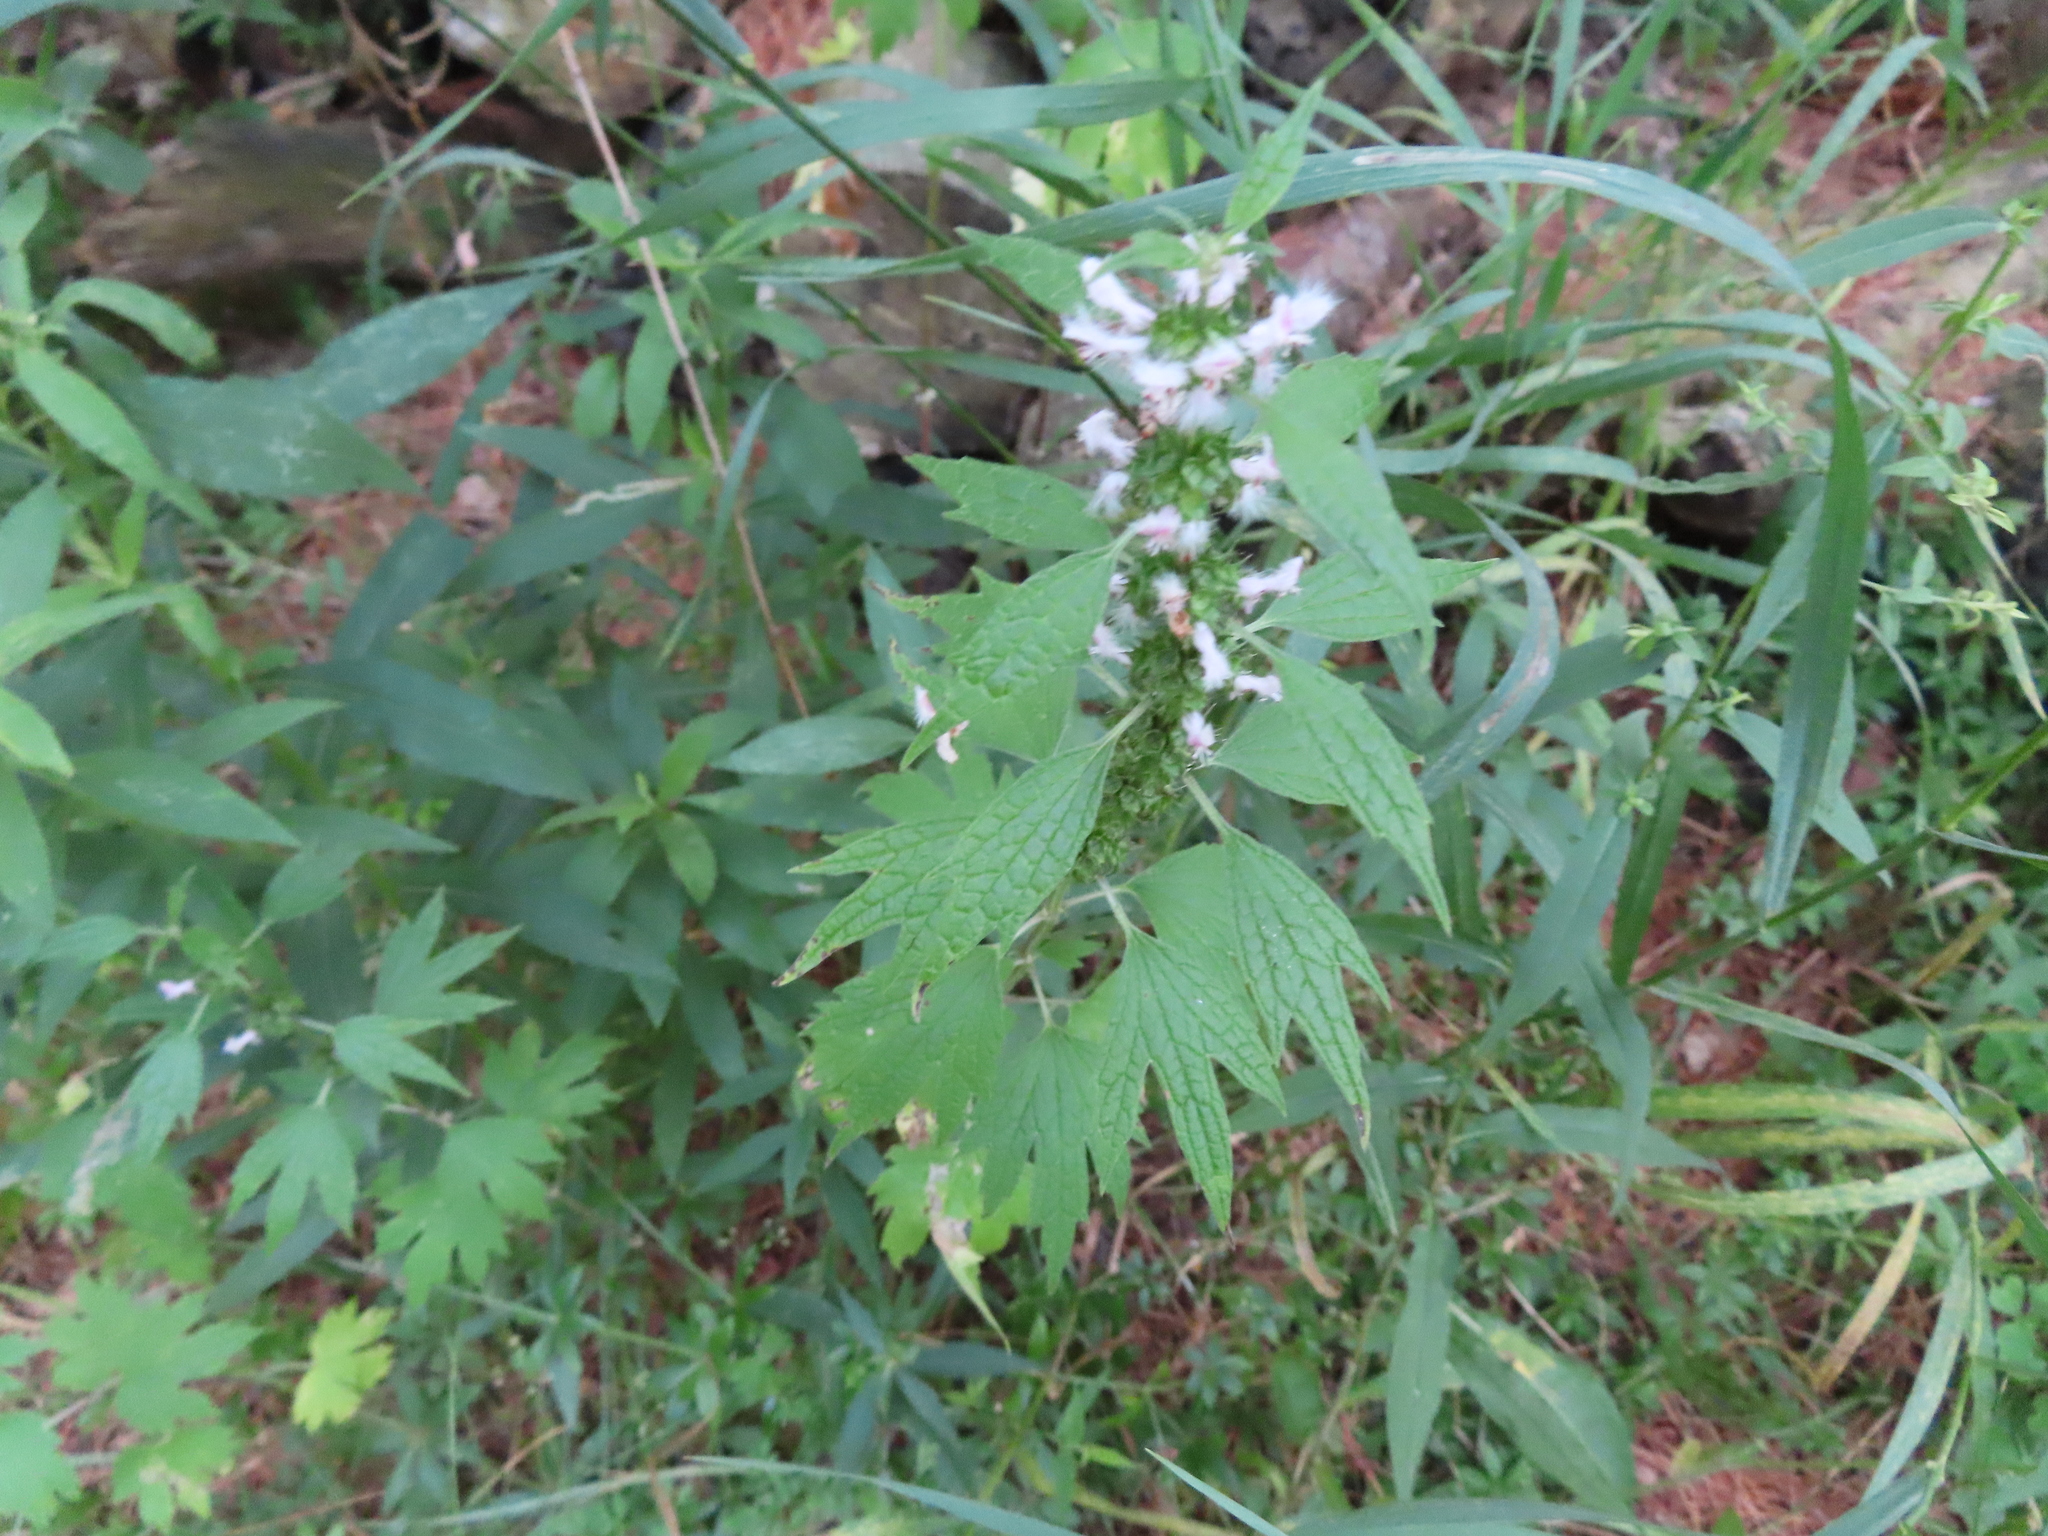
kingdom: Plantae
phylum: Tracheophyta
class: Magnoliopsida
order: Lamiales
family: Lamiaceae
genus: Leonurus
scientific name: Leonurus cardiaca
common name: Motherwort
